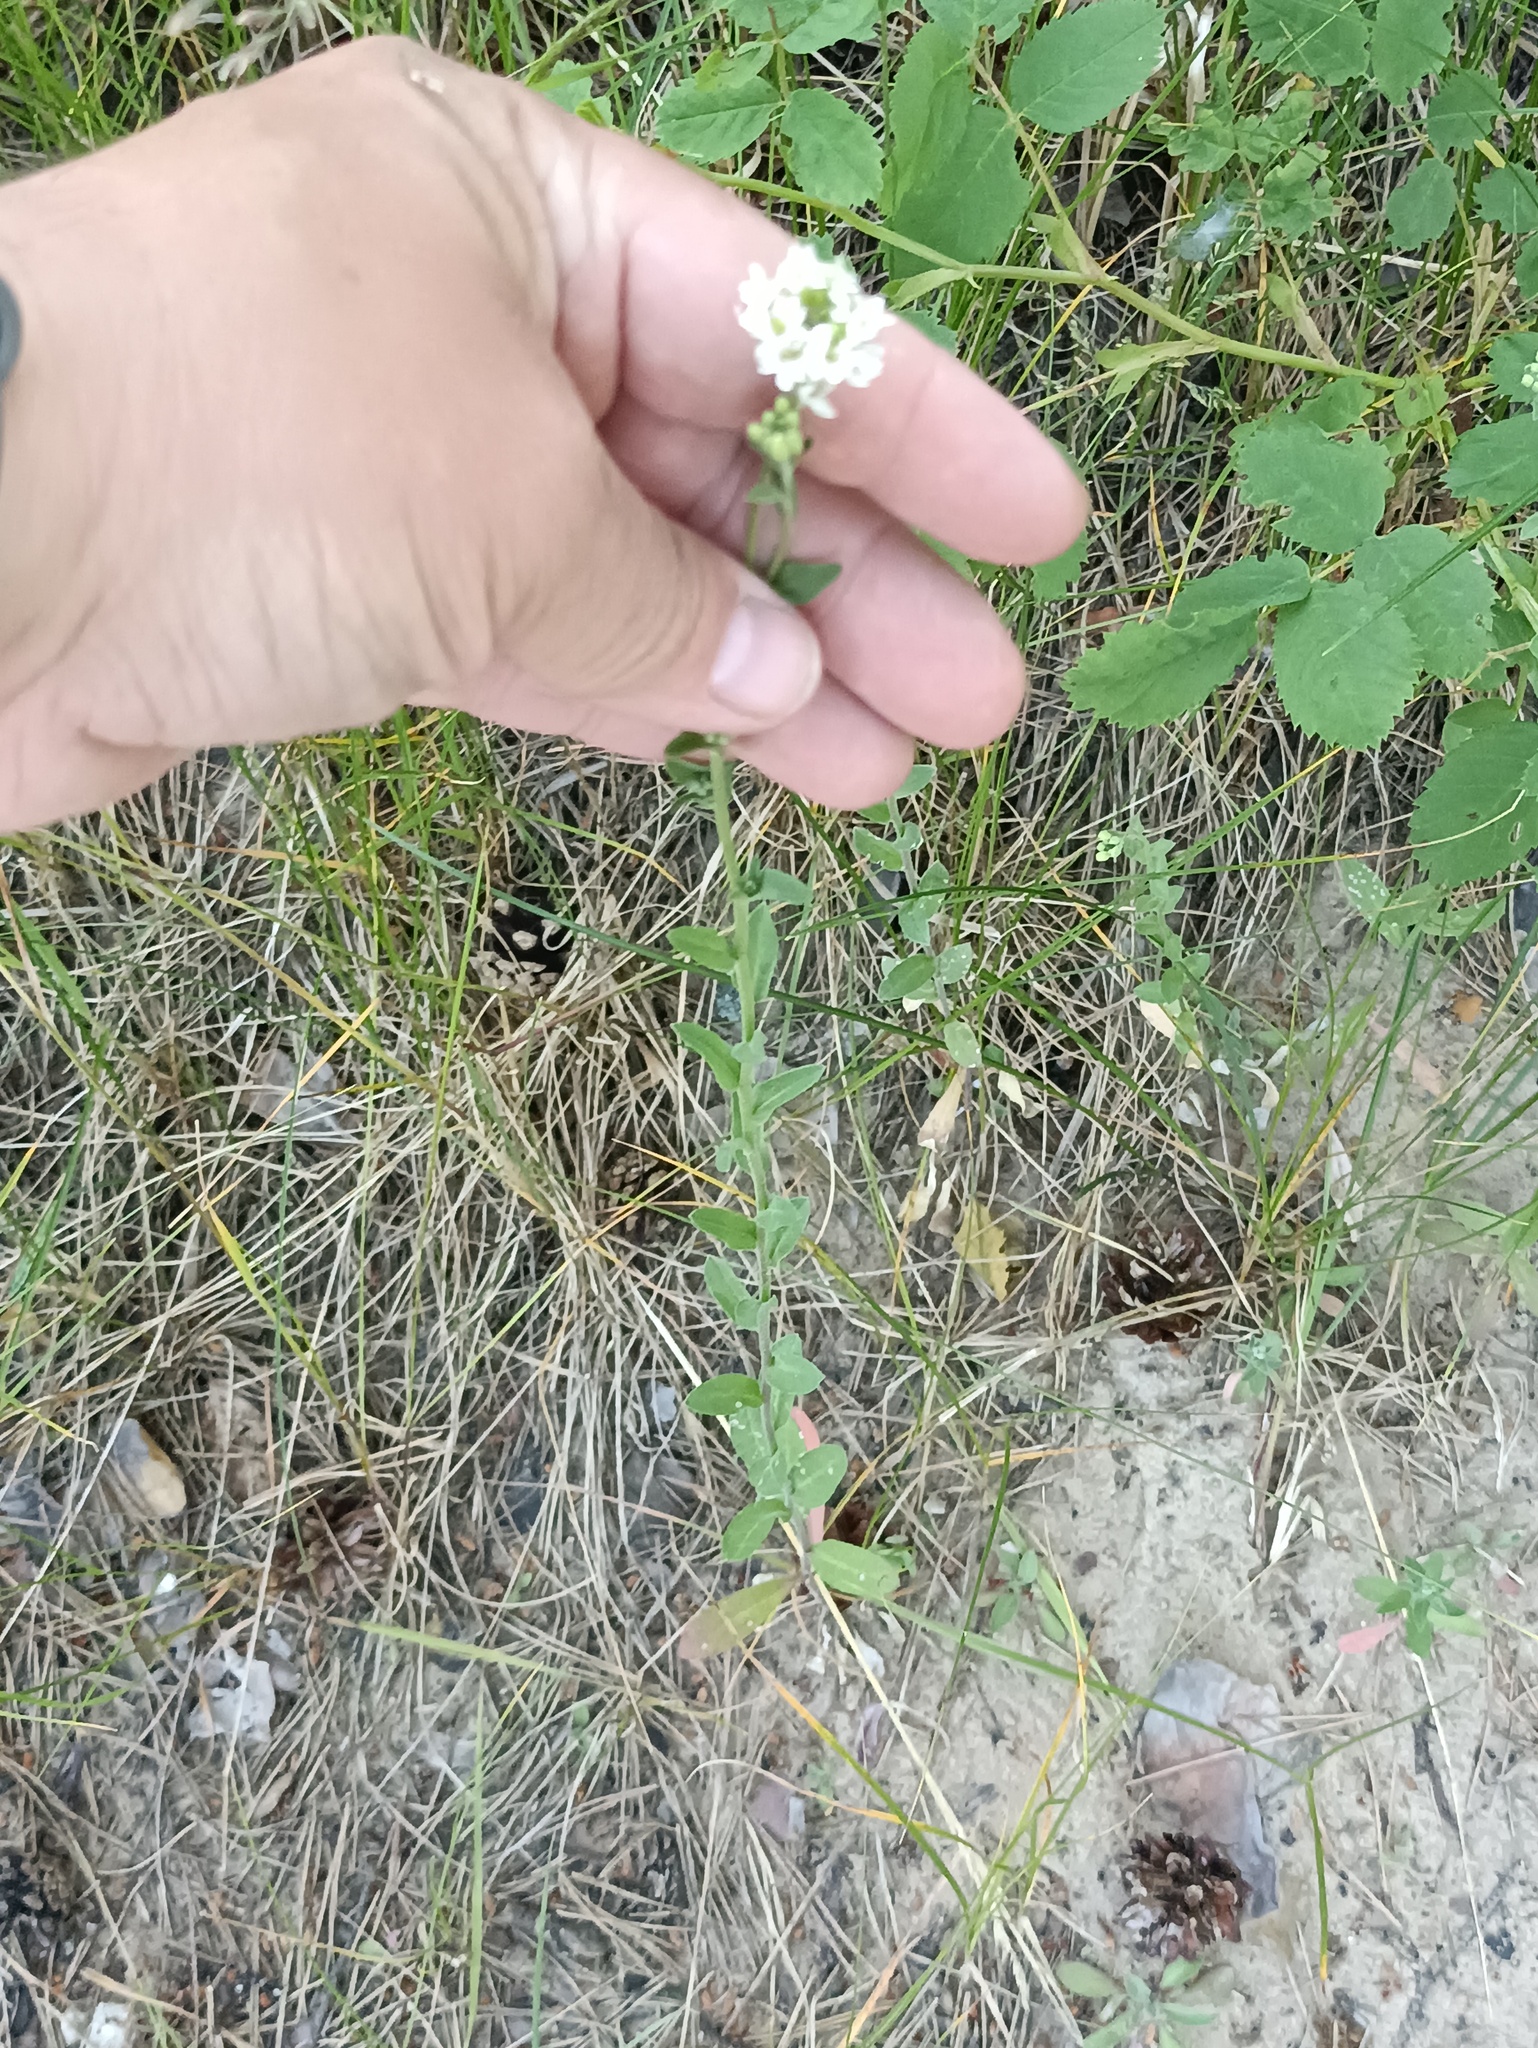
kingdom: Plantae
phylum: Tracheophyta
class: Magnoliopsida
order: Brassicales
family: Brassicaceae
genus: Berteroa
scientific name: Berteroa incana
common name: Hoary alison
